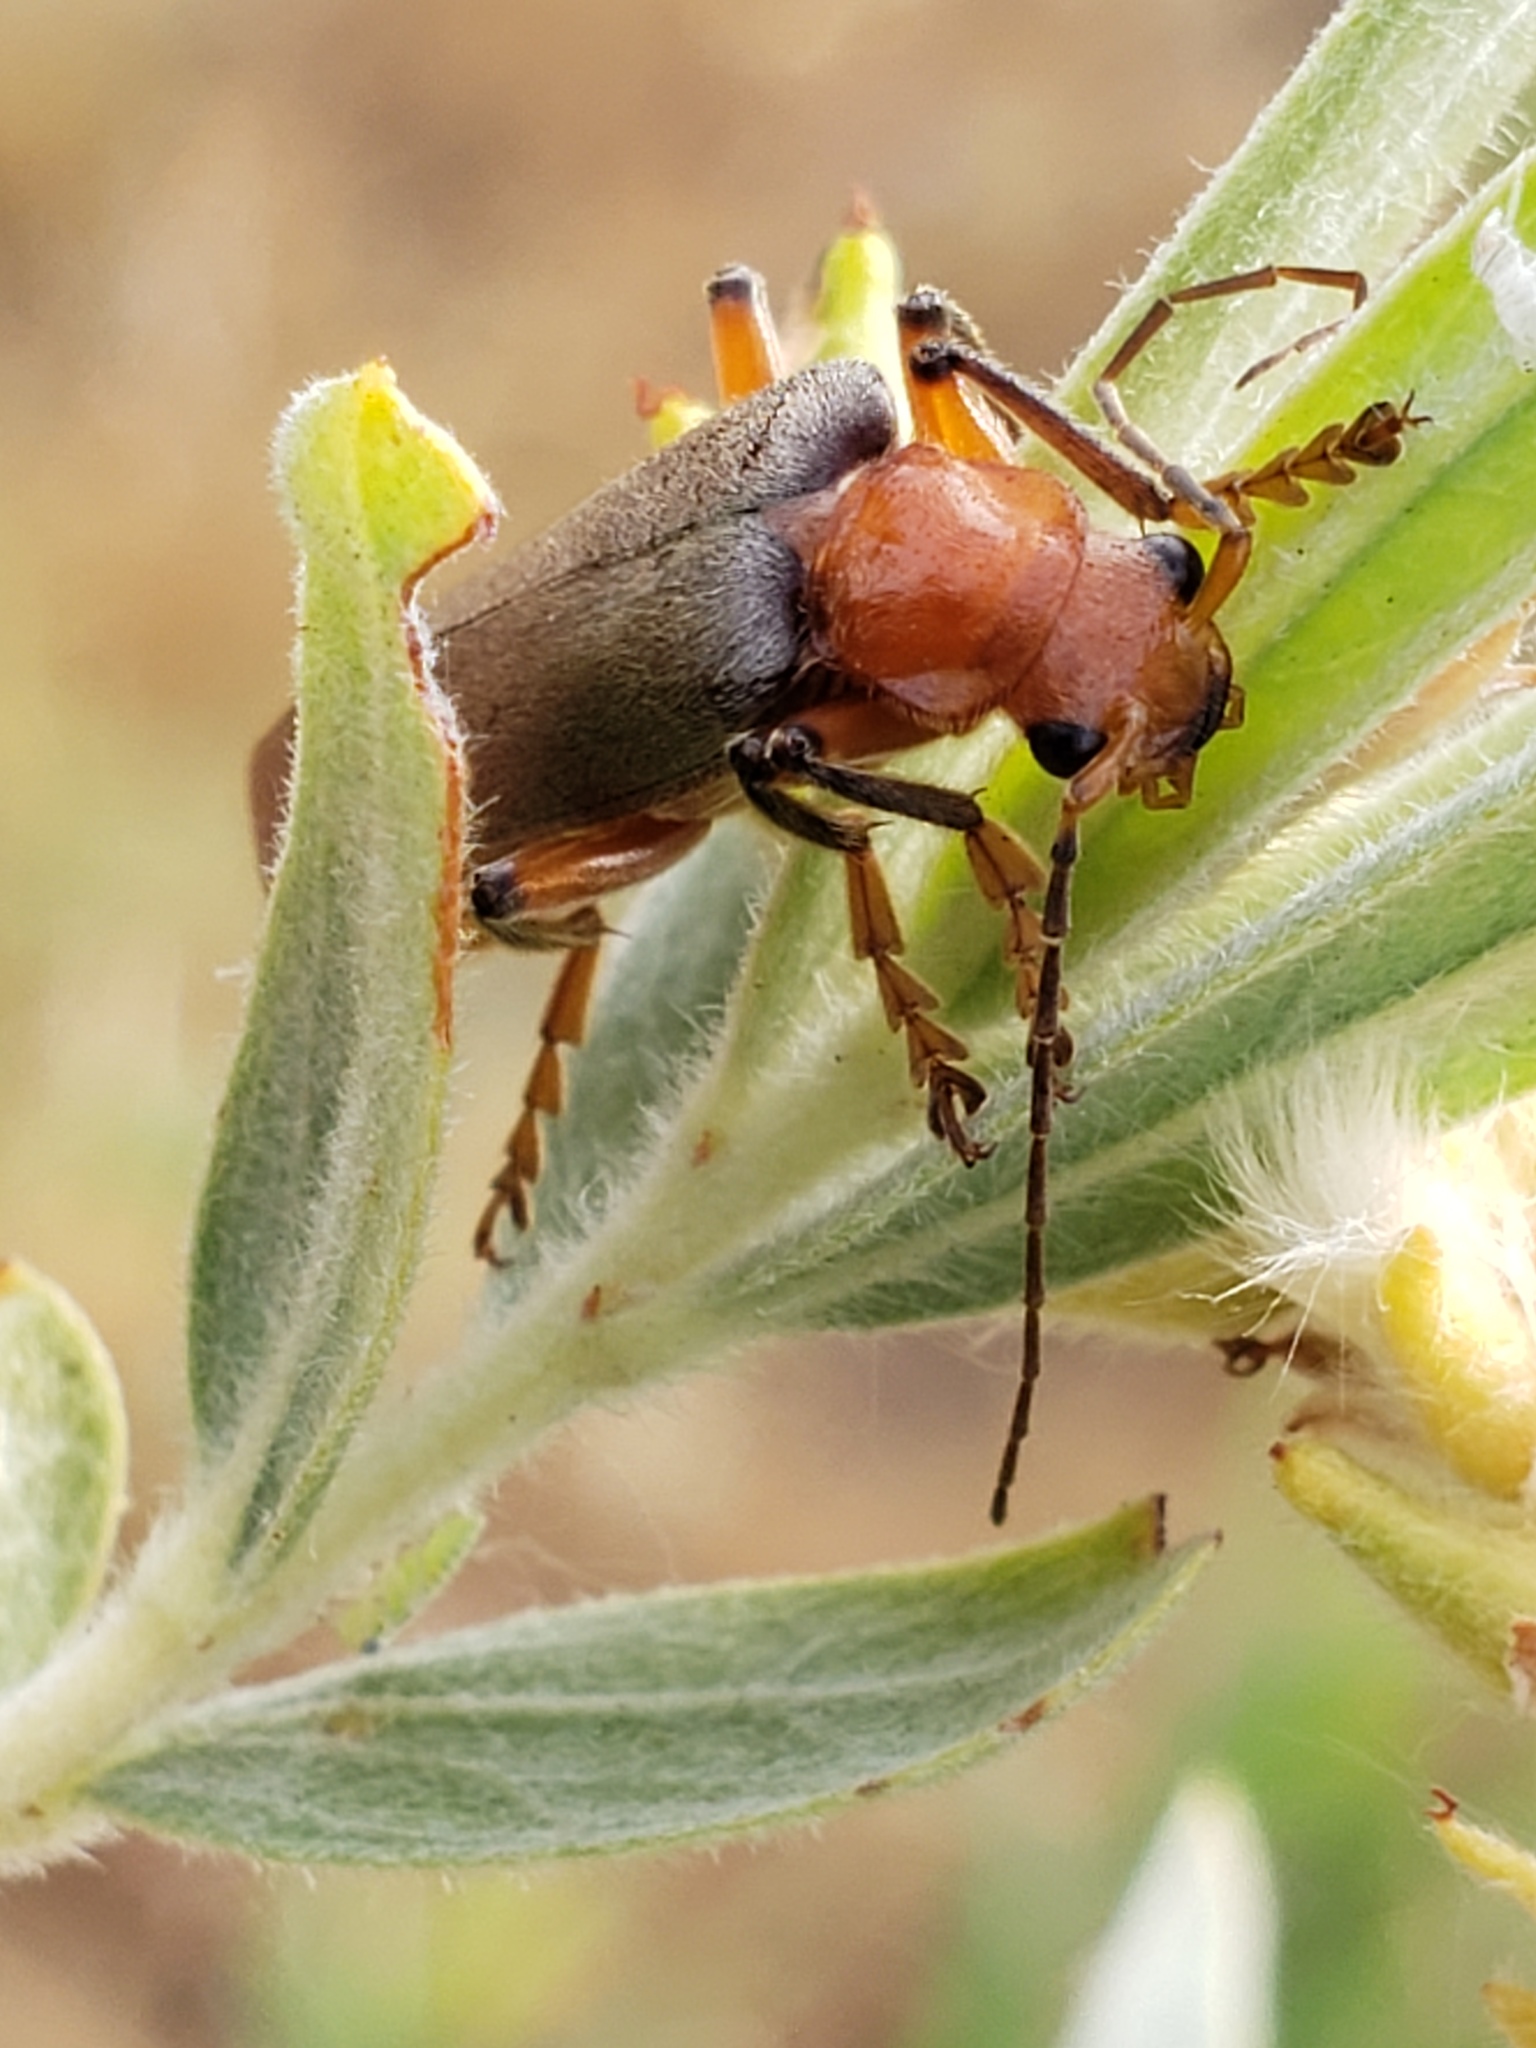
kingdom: Animalia
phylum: Arthropoda
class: Insecta
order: Coleoptera
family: Cantharidae
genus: Pacificanthia
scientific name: Pacificanthia consors
